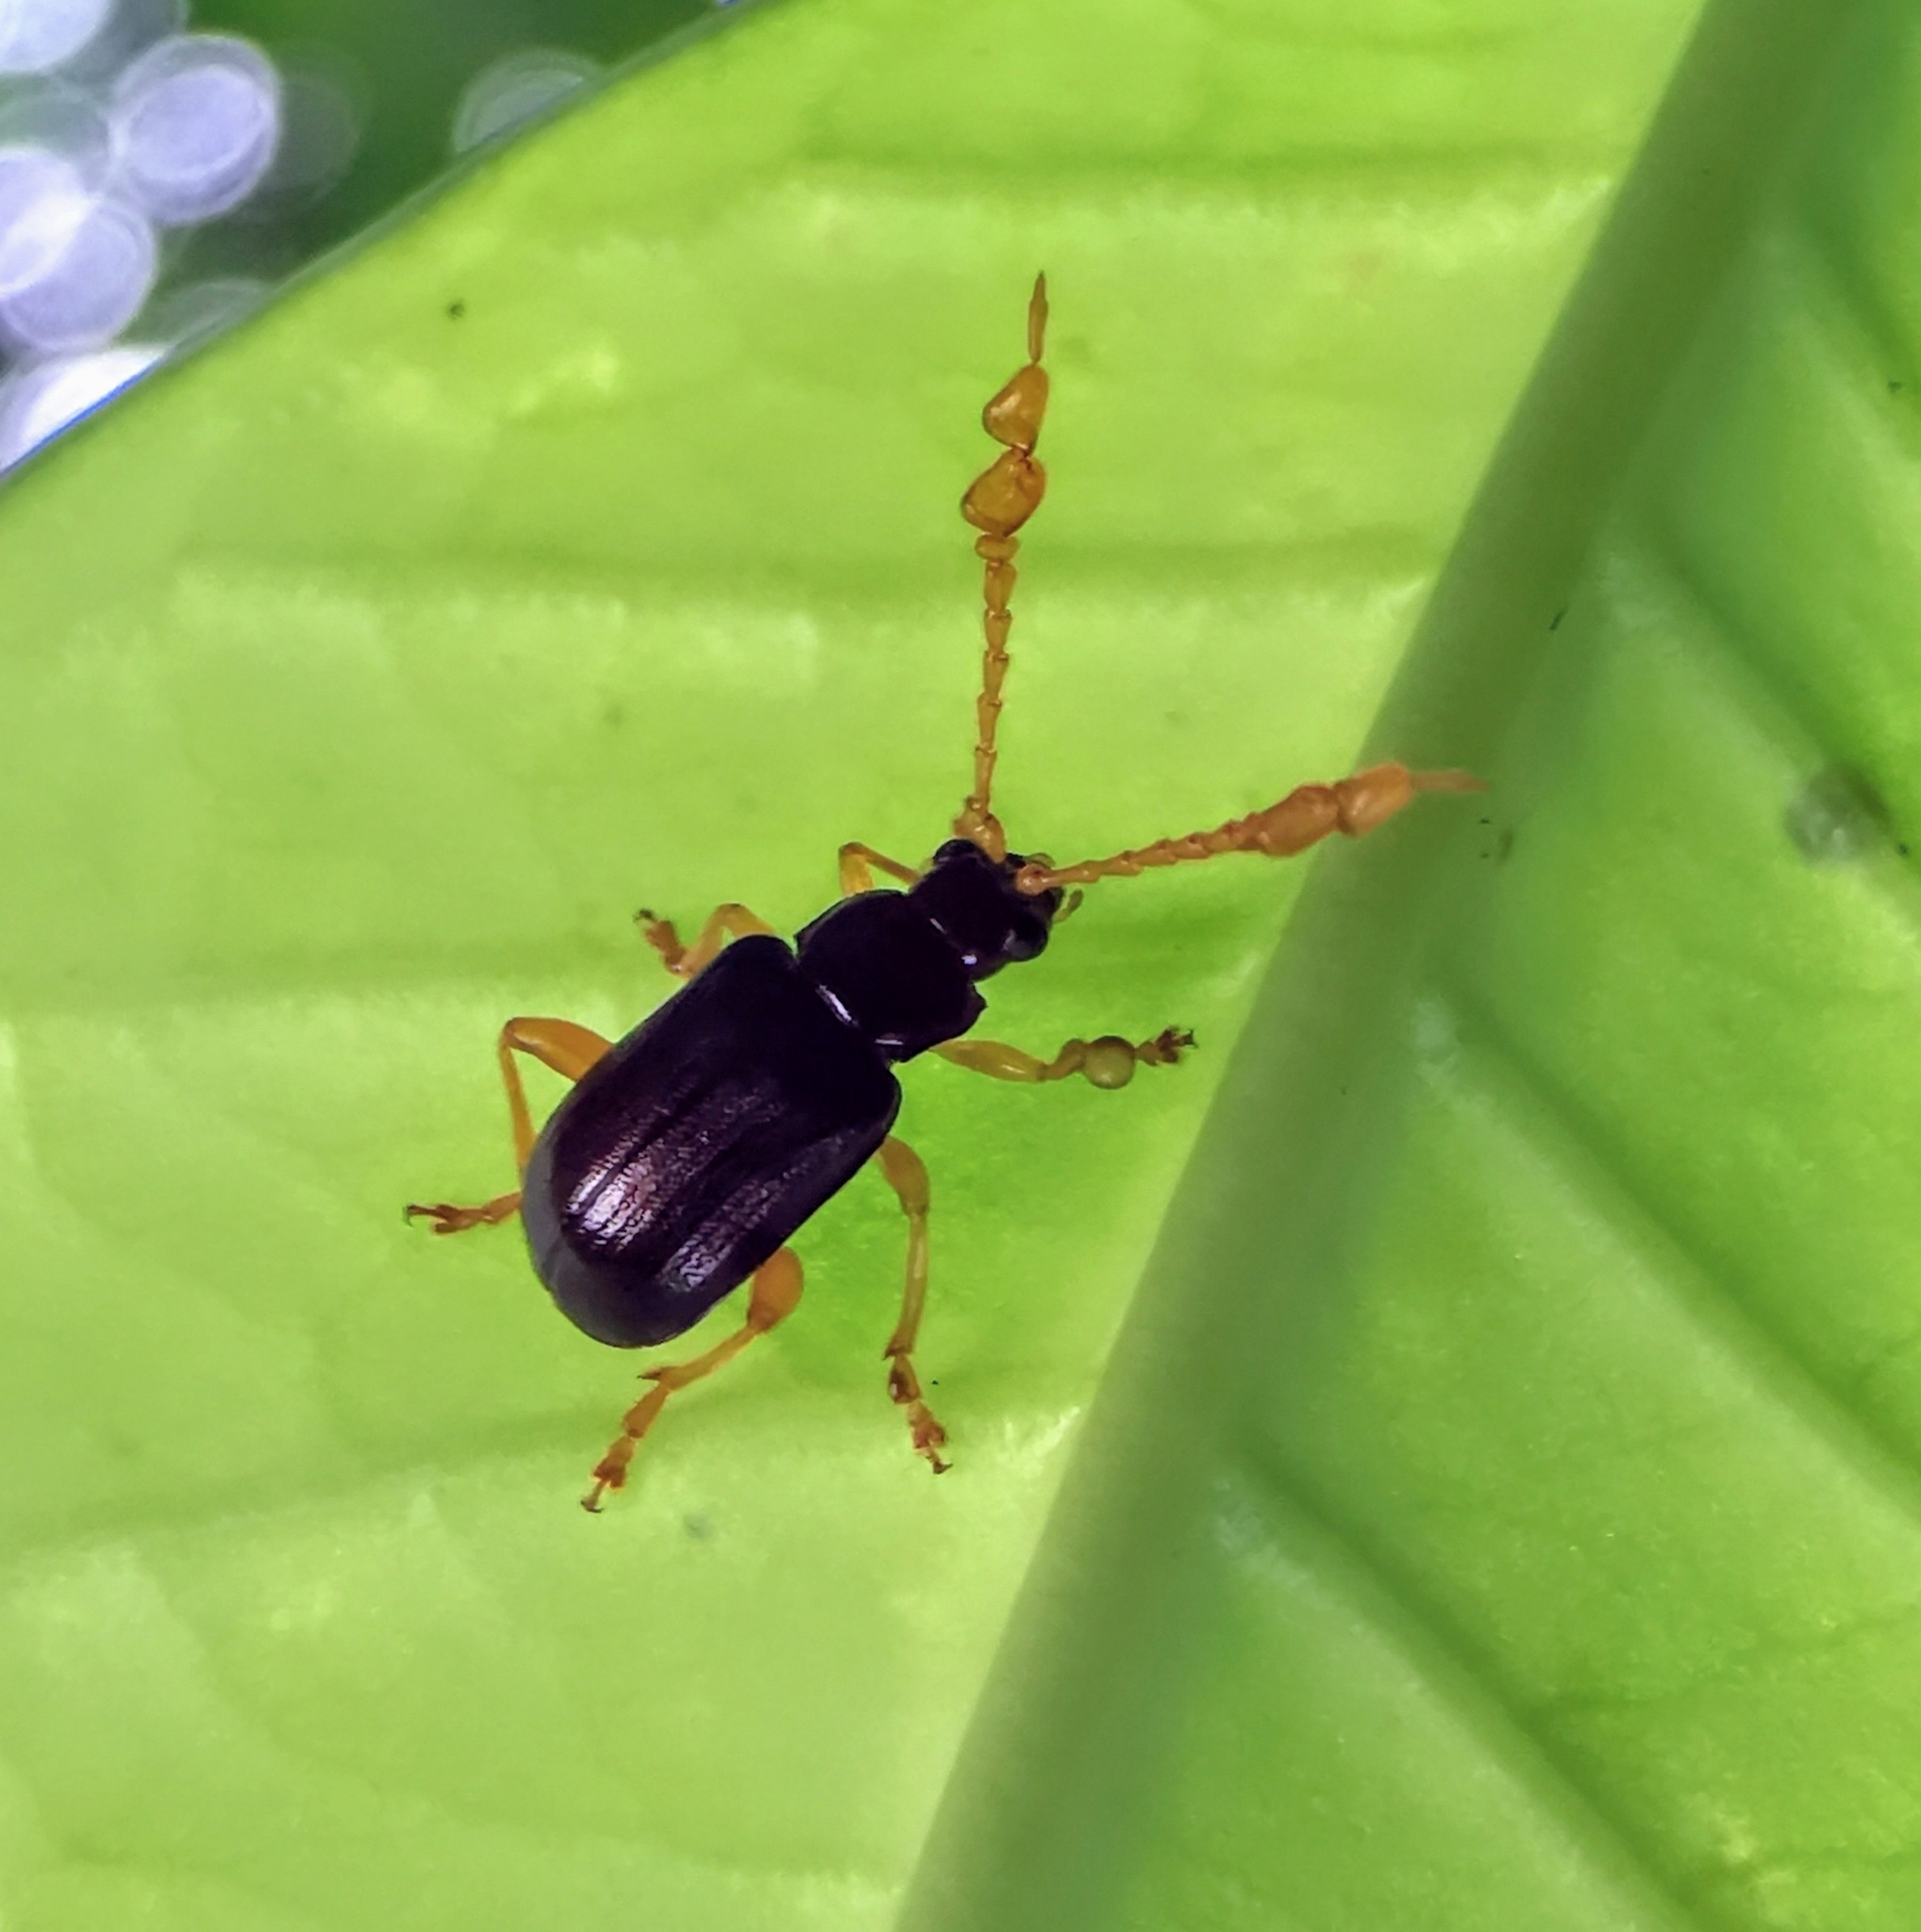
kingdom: Animalia
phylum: Arthropoda
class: Insecta
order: Coleoptera
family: Chrysomelidae
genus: Taumacera
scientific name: Taumacera insignis
